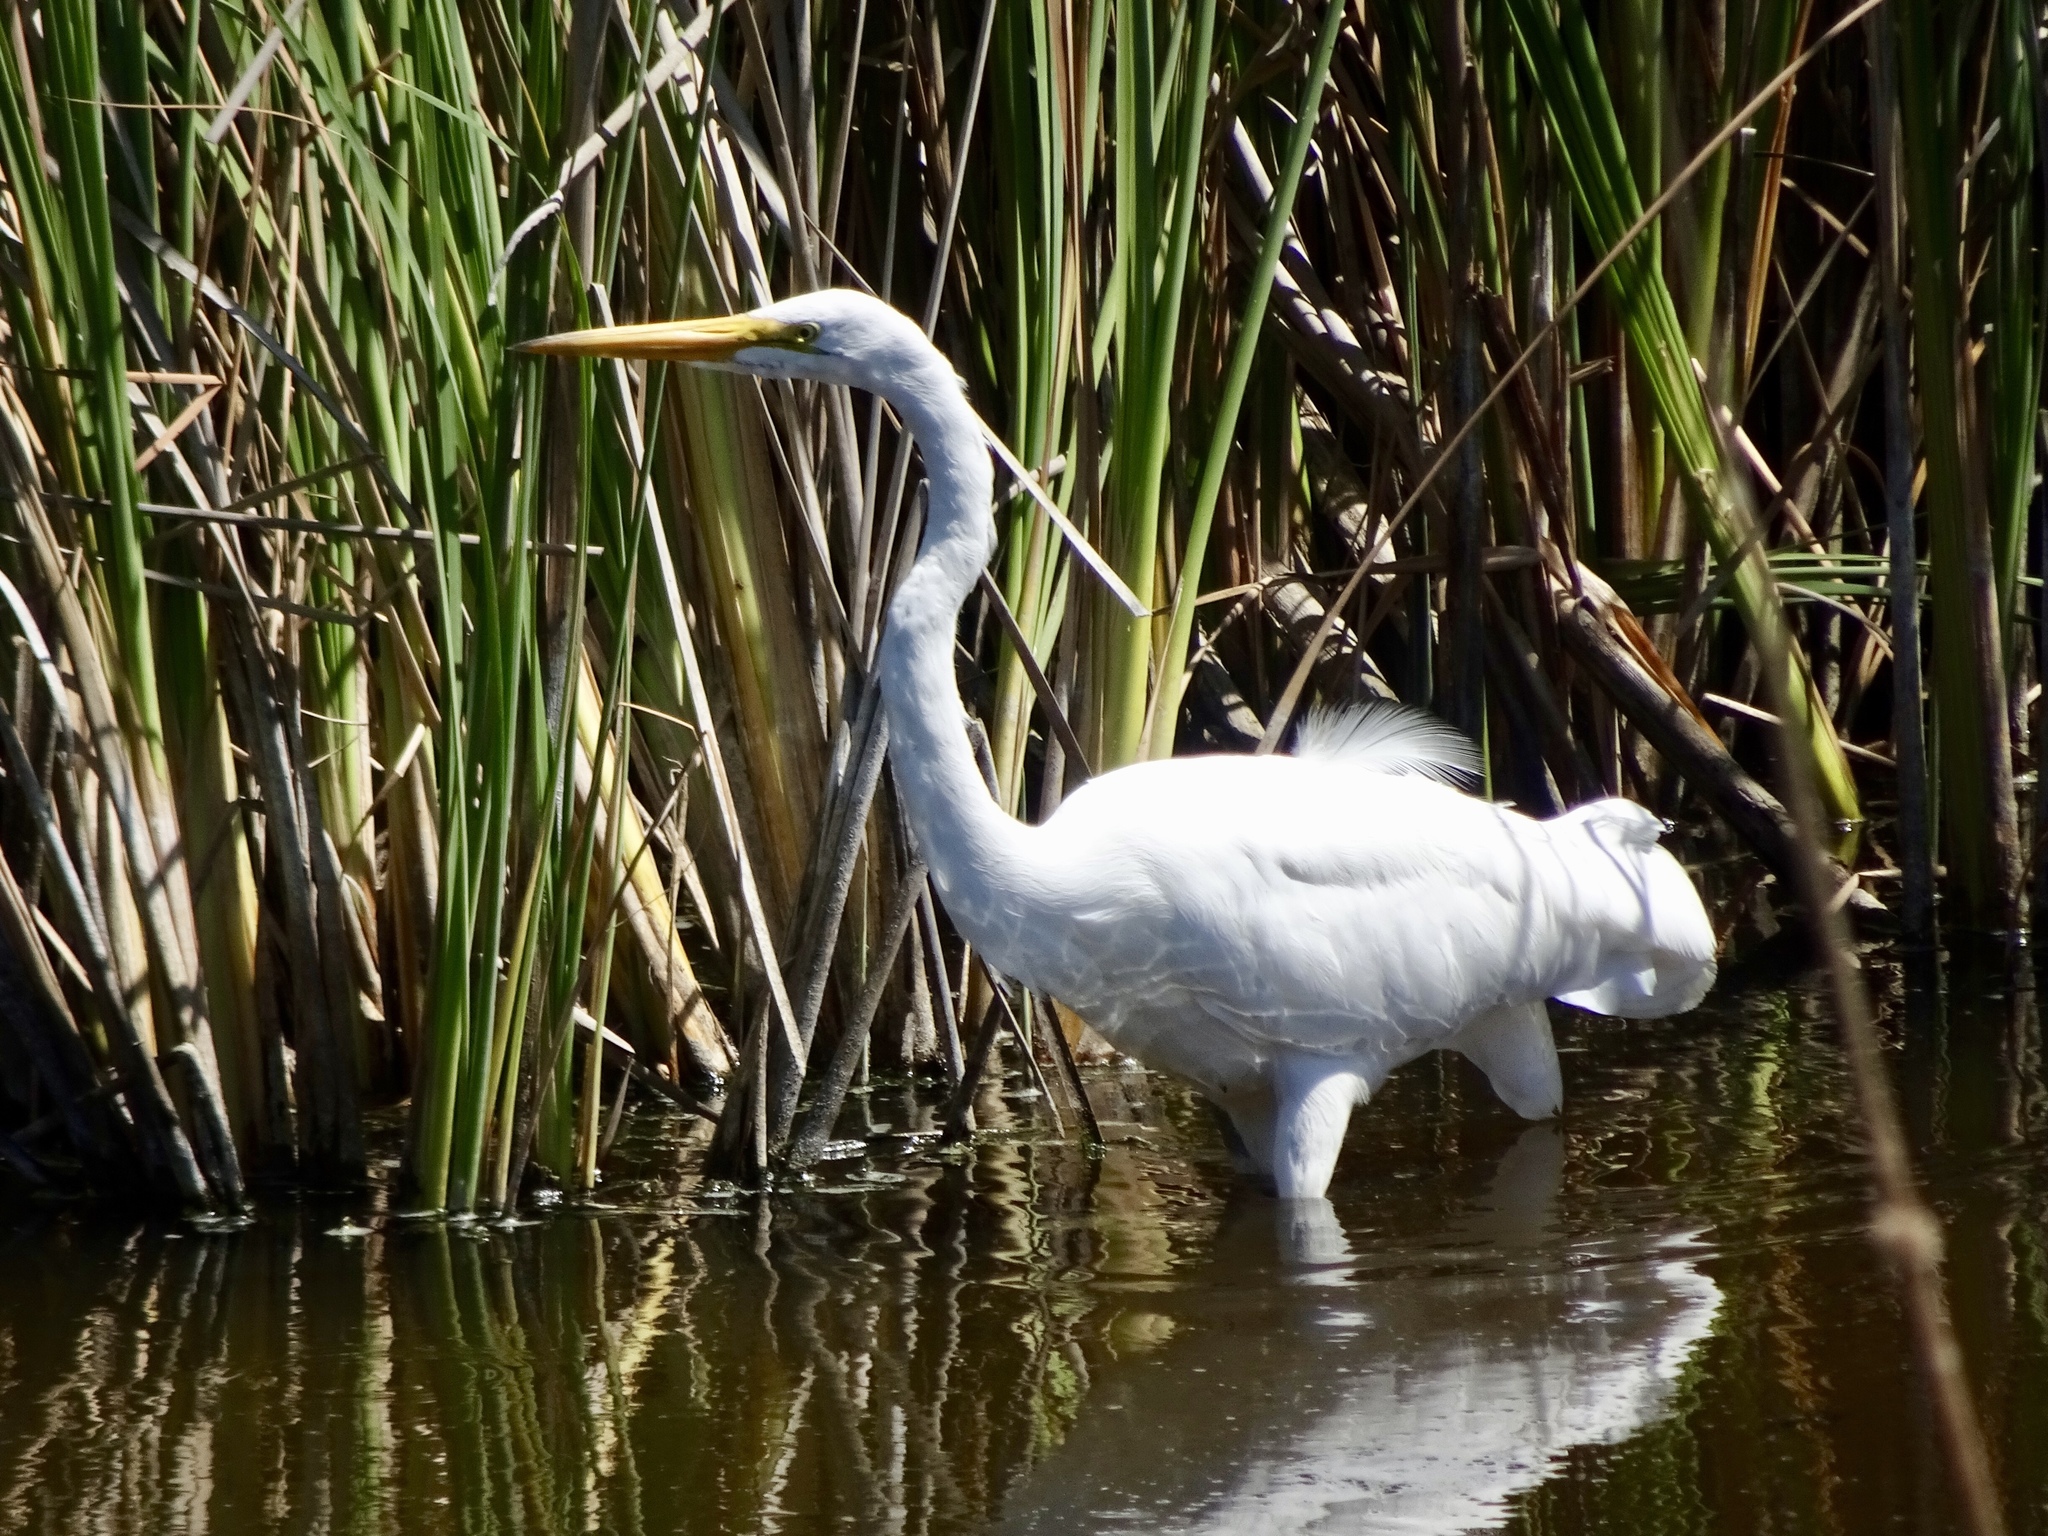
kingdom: Animalia
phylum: Chordata
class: Aves
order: Pelecaniformes
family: Ardeidae
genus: Ardea
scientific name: Ardea alba
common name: Great egret
